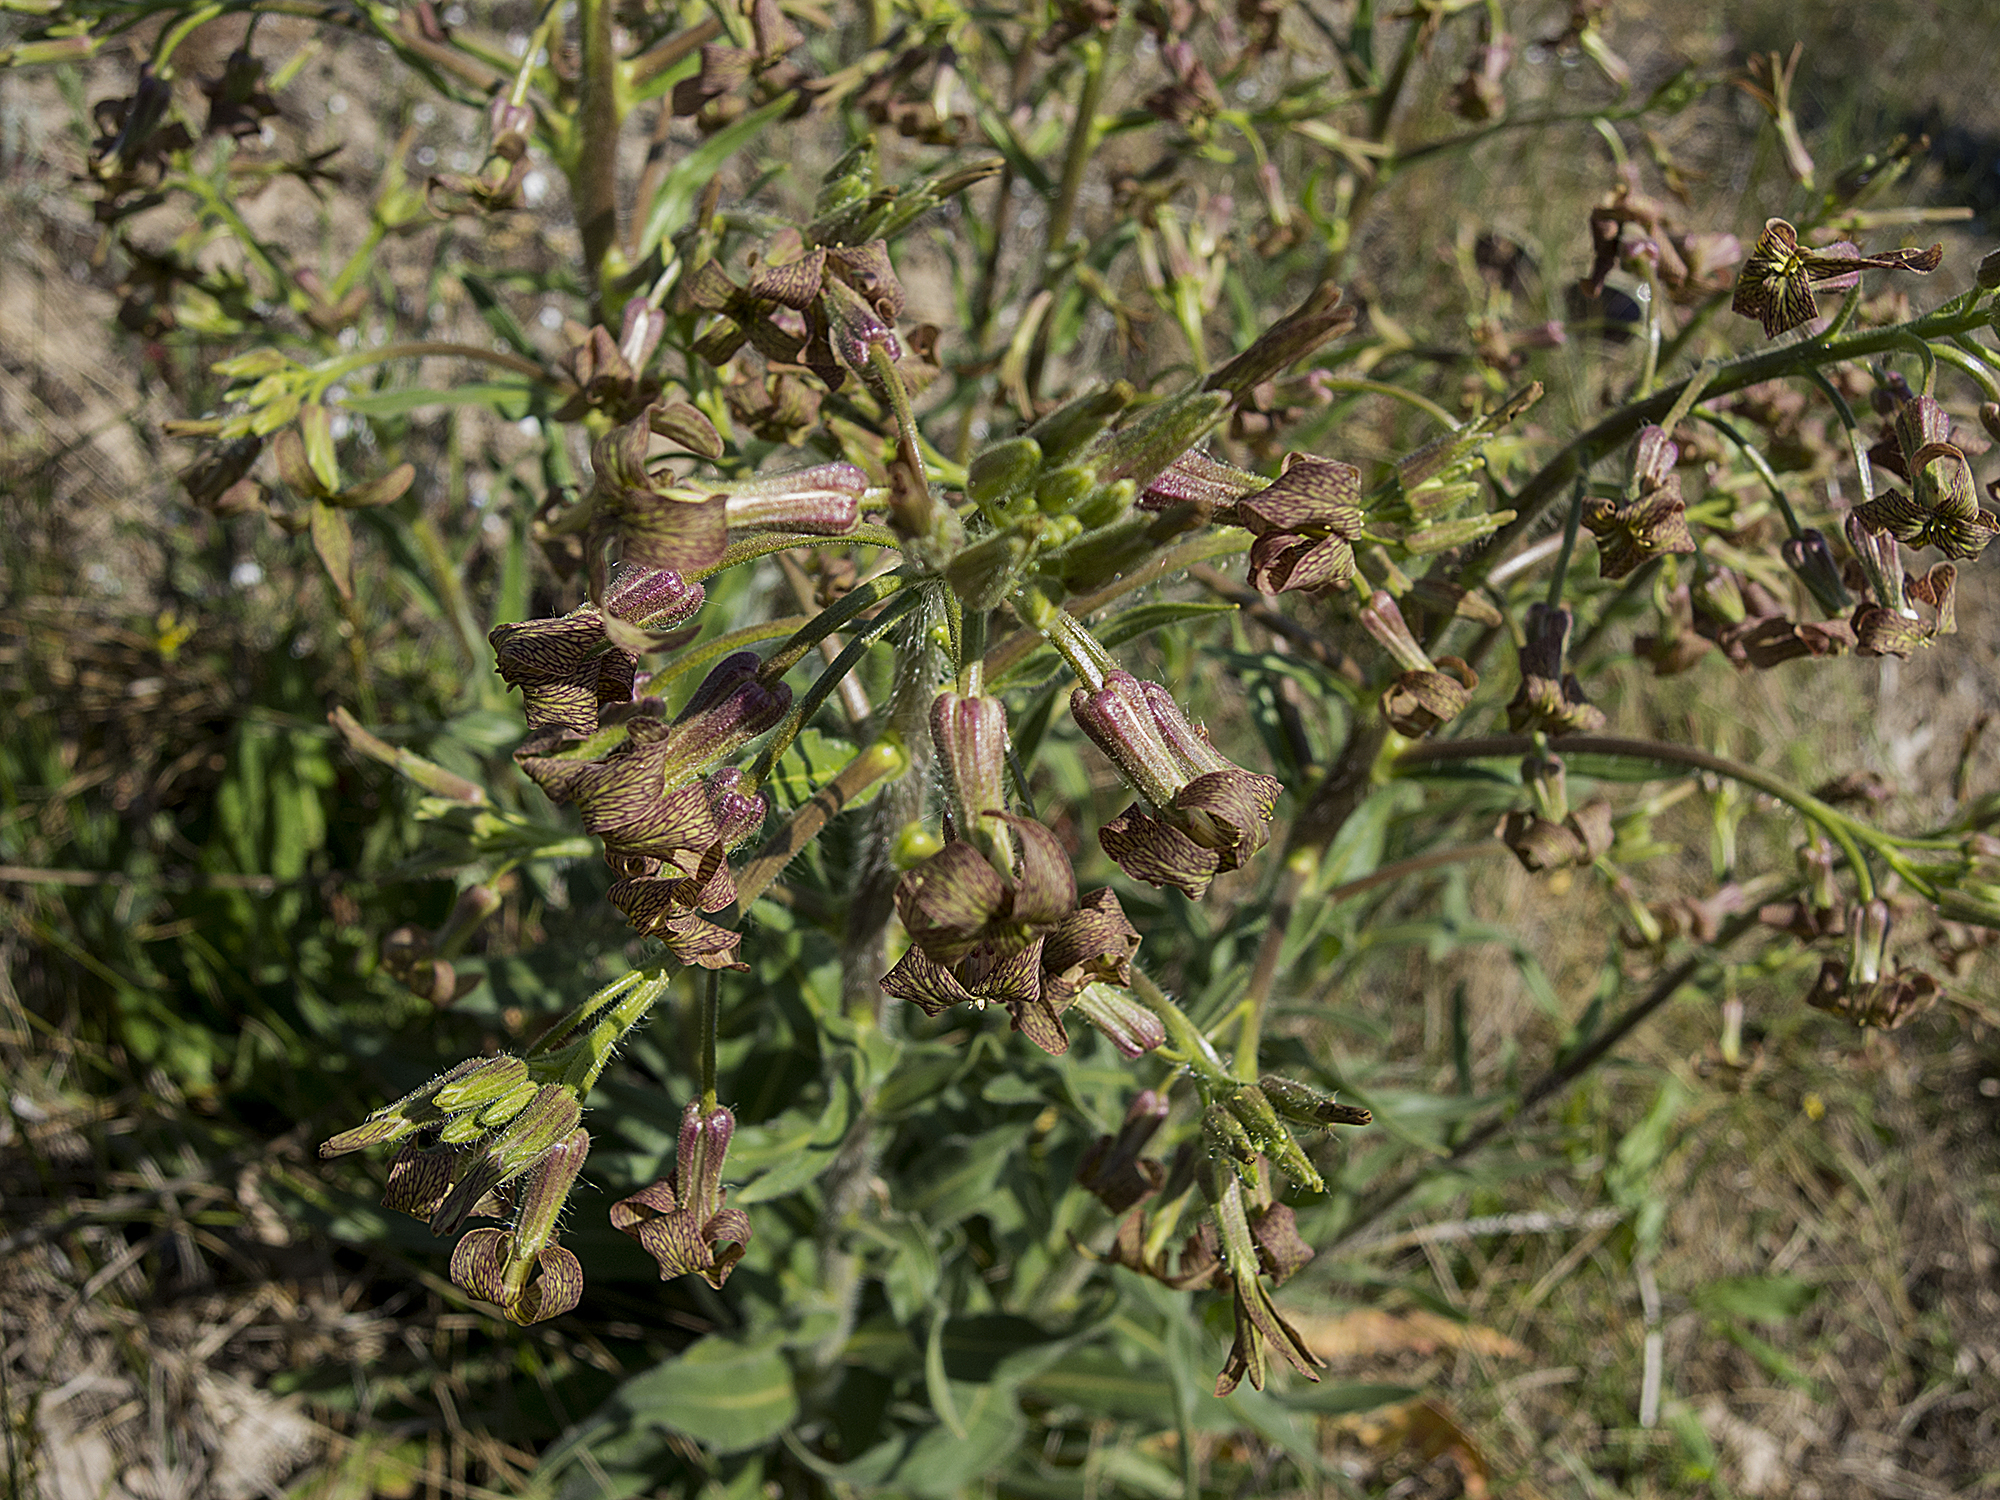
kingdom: Plantae
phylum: Tracheophyta
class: Magnoliopsida
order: Brassicales
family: Brassicaceae
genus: Hesperis
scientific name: Hesperis tristis
